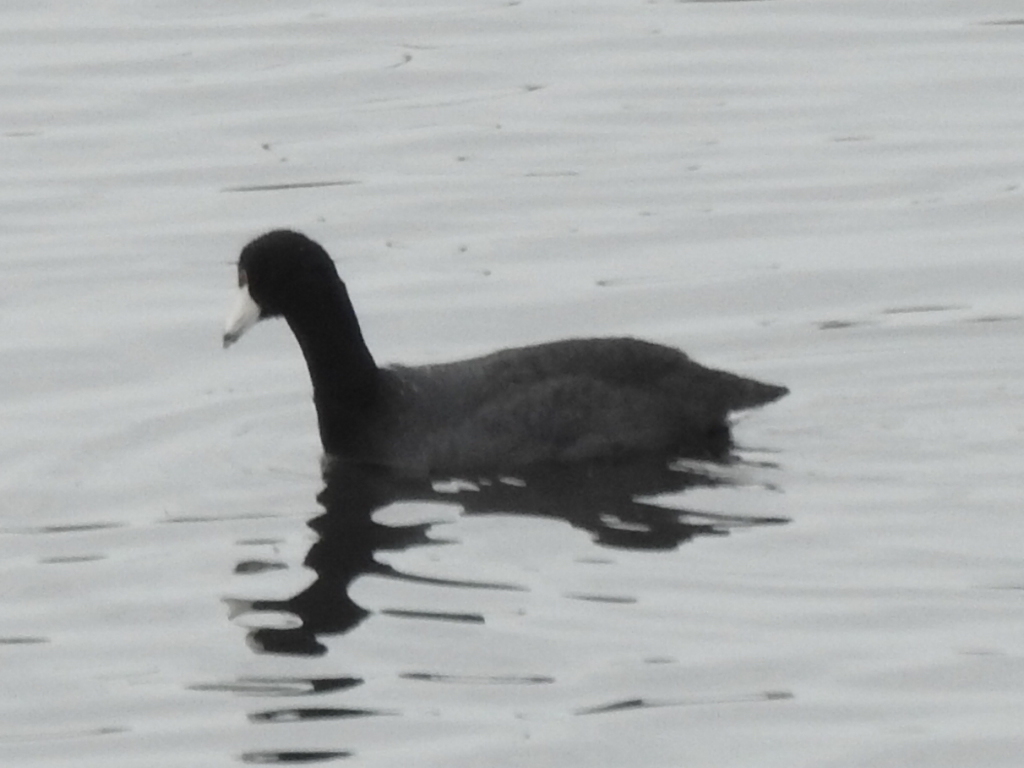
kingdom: Animalia
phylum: Chordata
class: Aves
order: Gruiformes
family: Rallidae
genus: Fulica
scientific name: Fulica americana
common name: American coot
